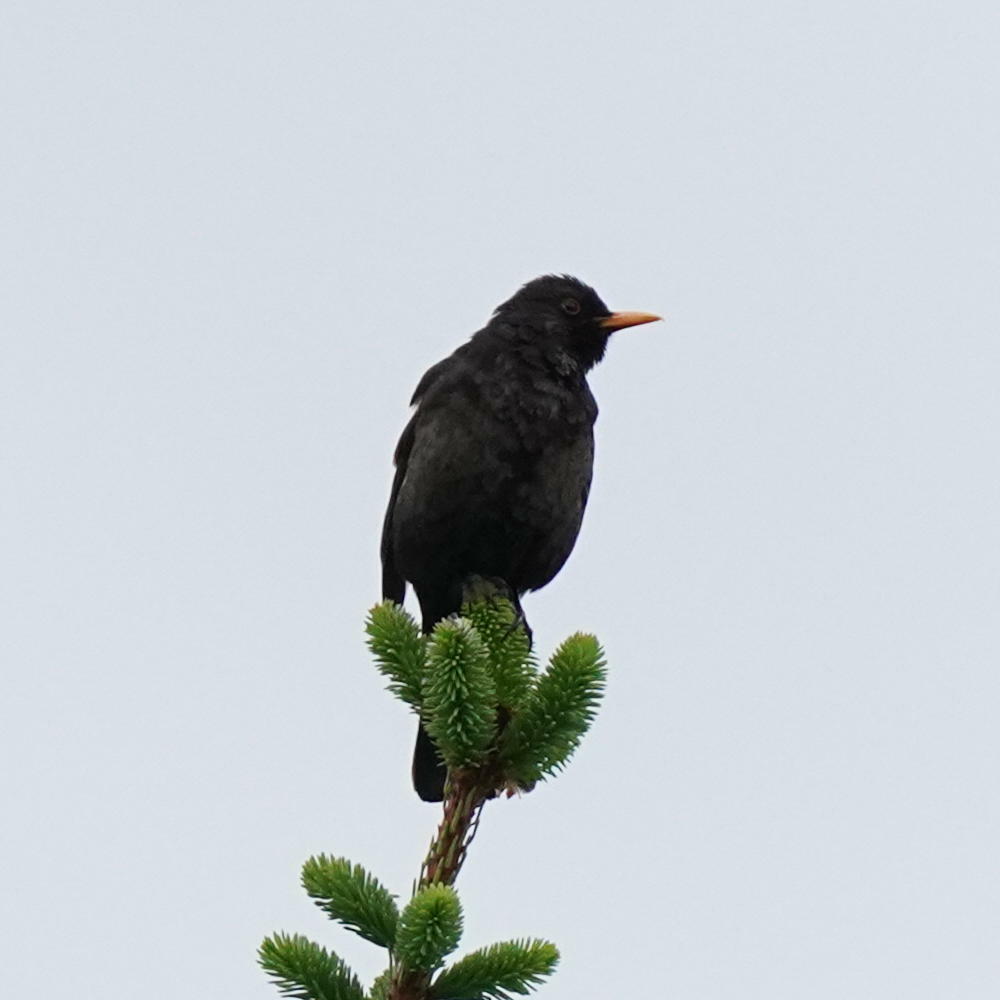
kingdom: Animalia
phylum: Chordata
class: Aves
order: Passeriformes
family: Turdidae
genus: Turdus
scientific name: Turdus merula
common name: Common blackbird
